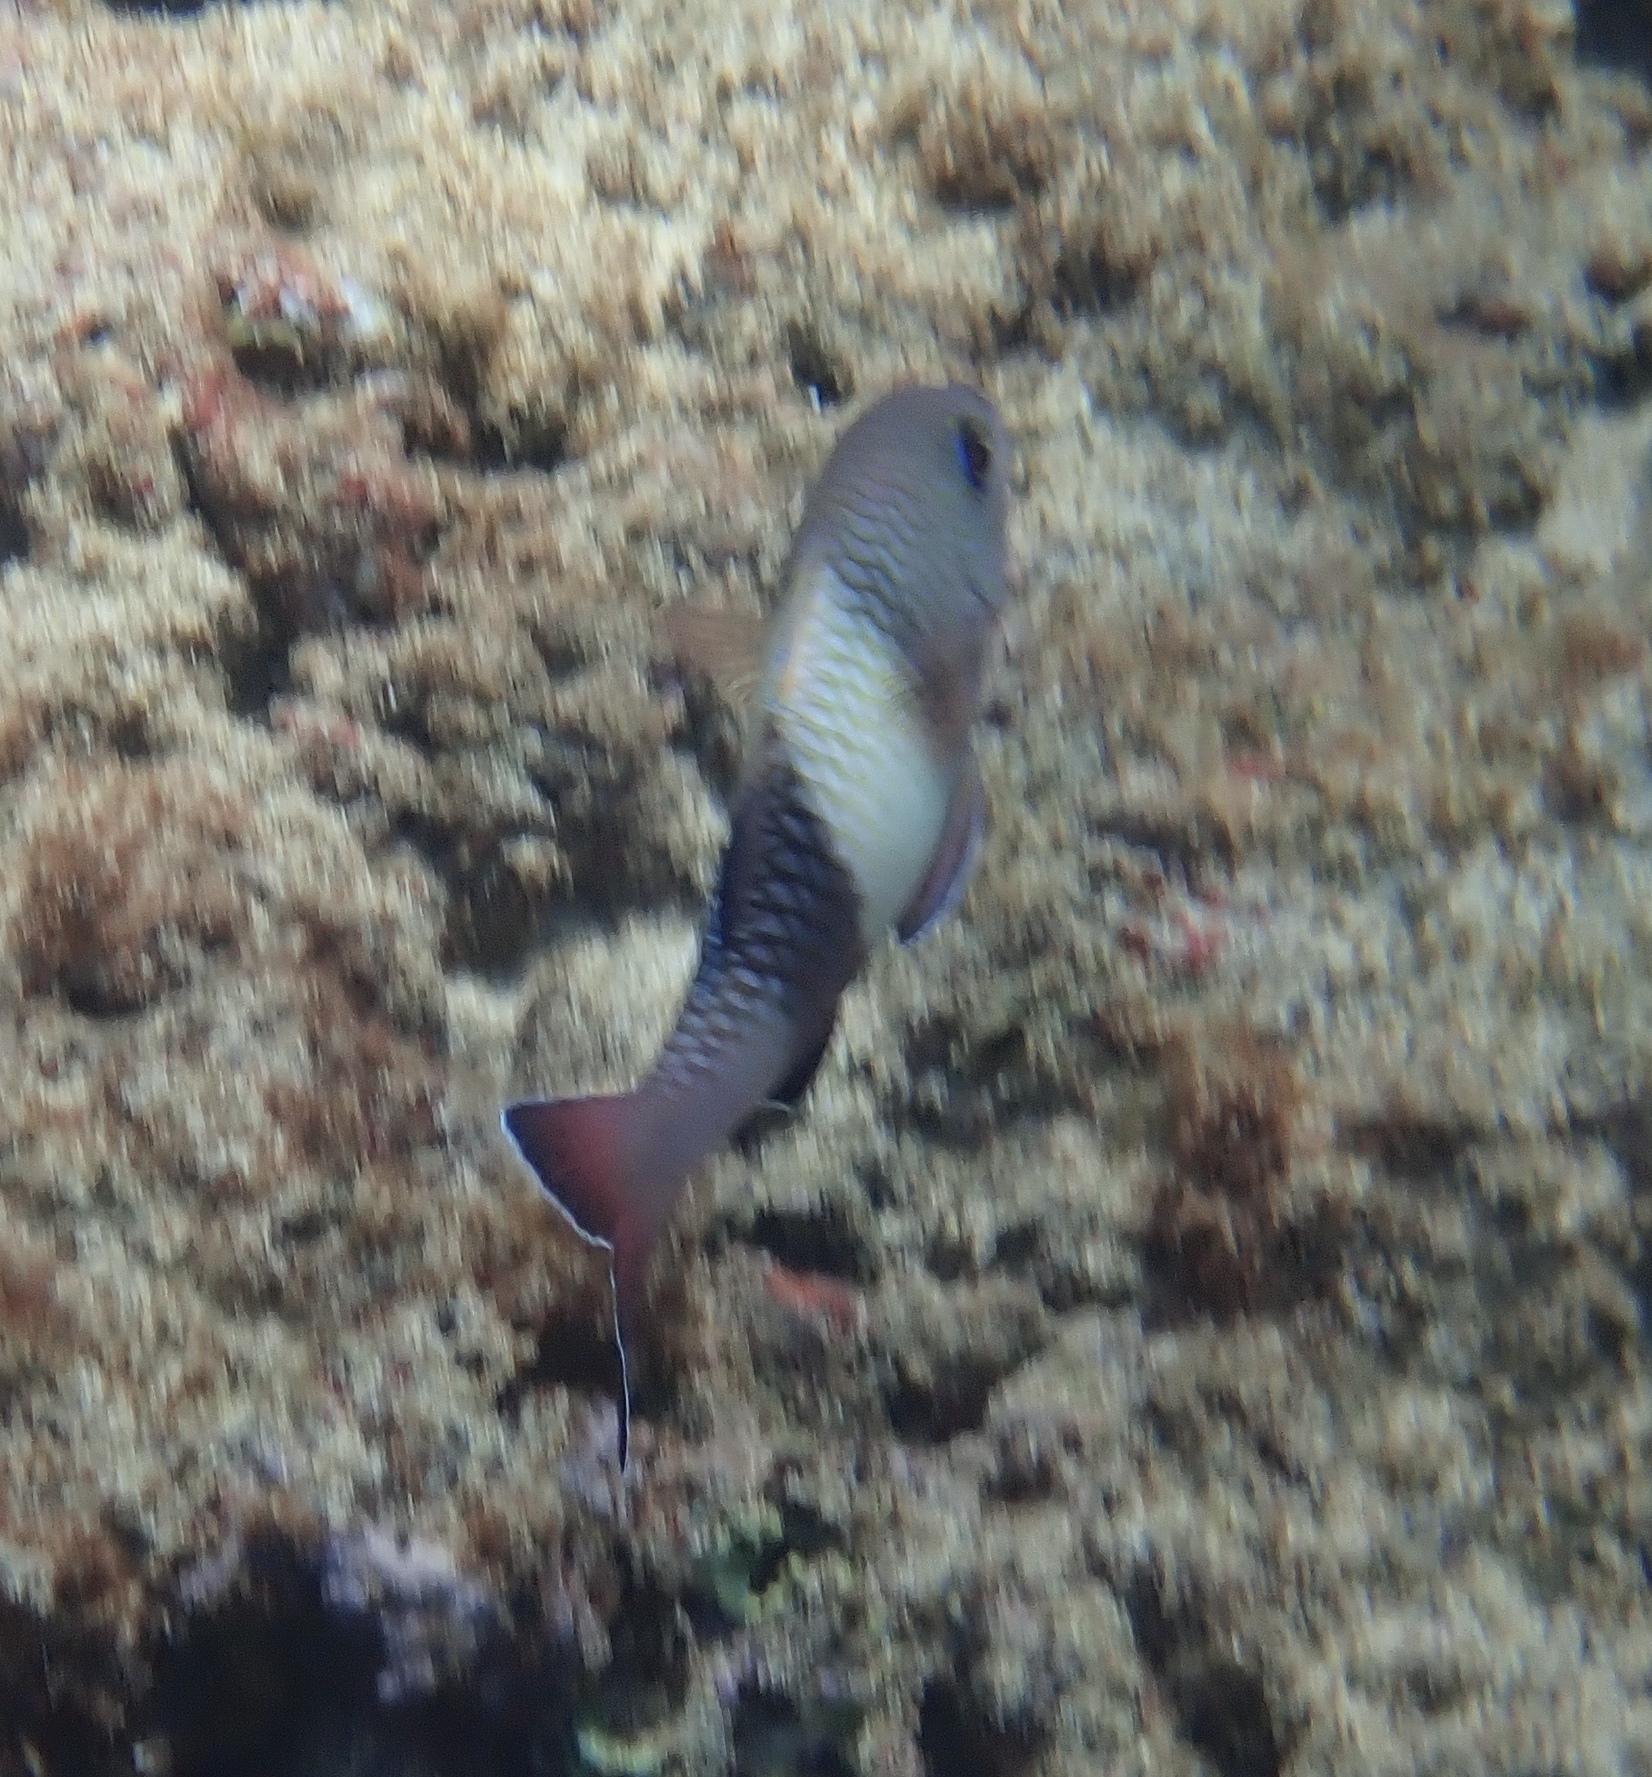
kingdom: Animalia
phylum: Chordata
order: Perciformes
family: Mullidae
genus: Parupeneus
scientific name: Parupeneus insularis
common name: Doublebar goatfish
